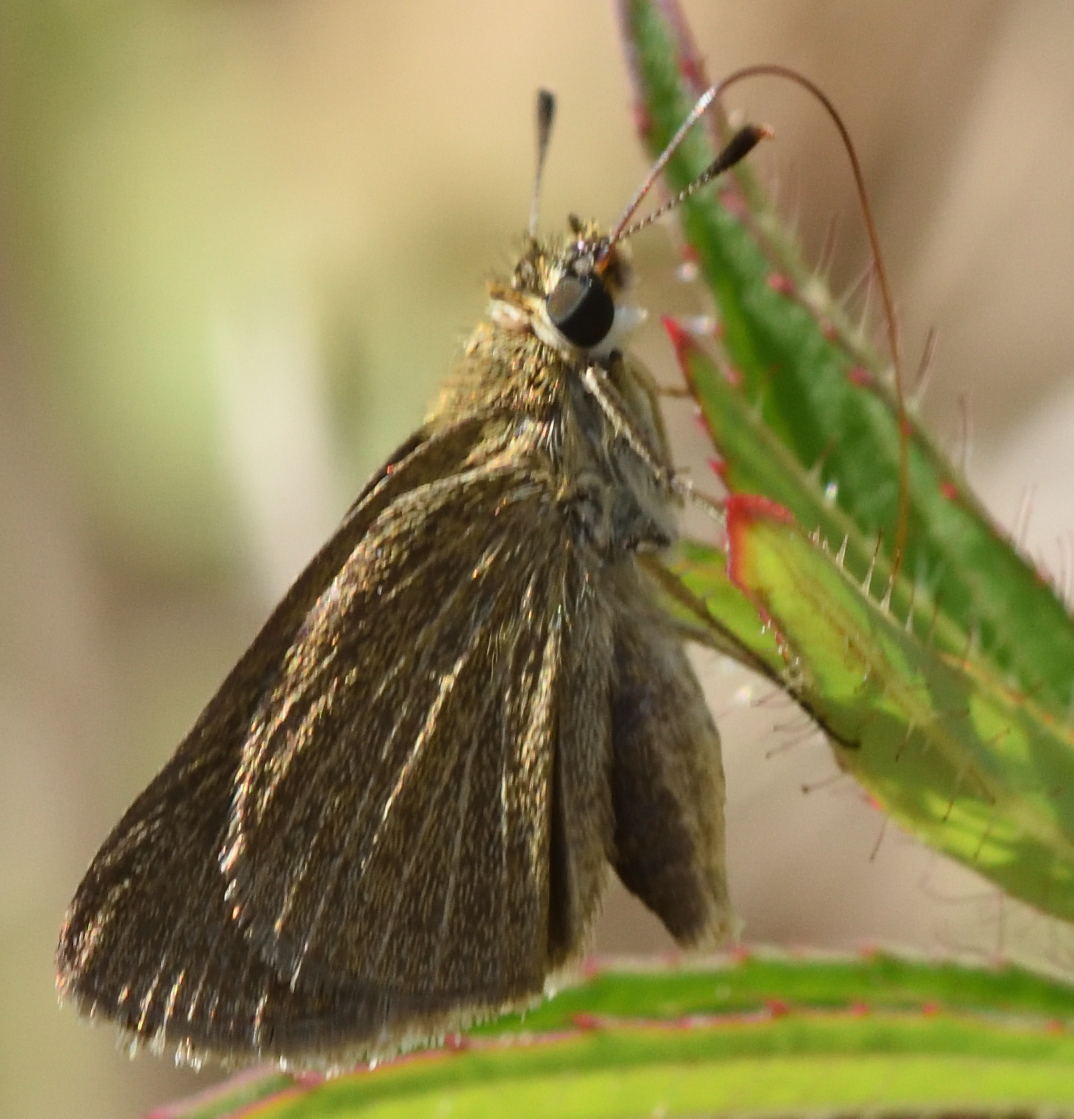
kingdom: Animalia
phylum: Arthropoda
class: Insecta
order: Lepidoptera
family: Hesperiidae
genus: Nastra
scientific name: Nastra lherminier
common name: Swarthy skipper
